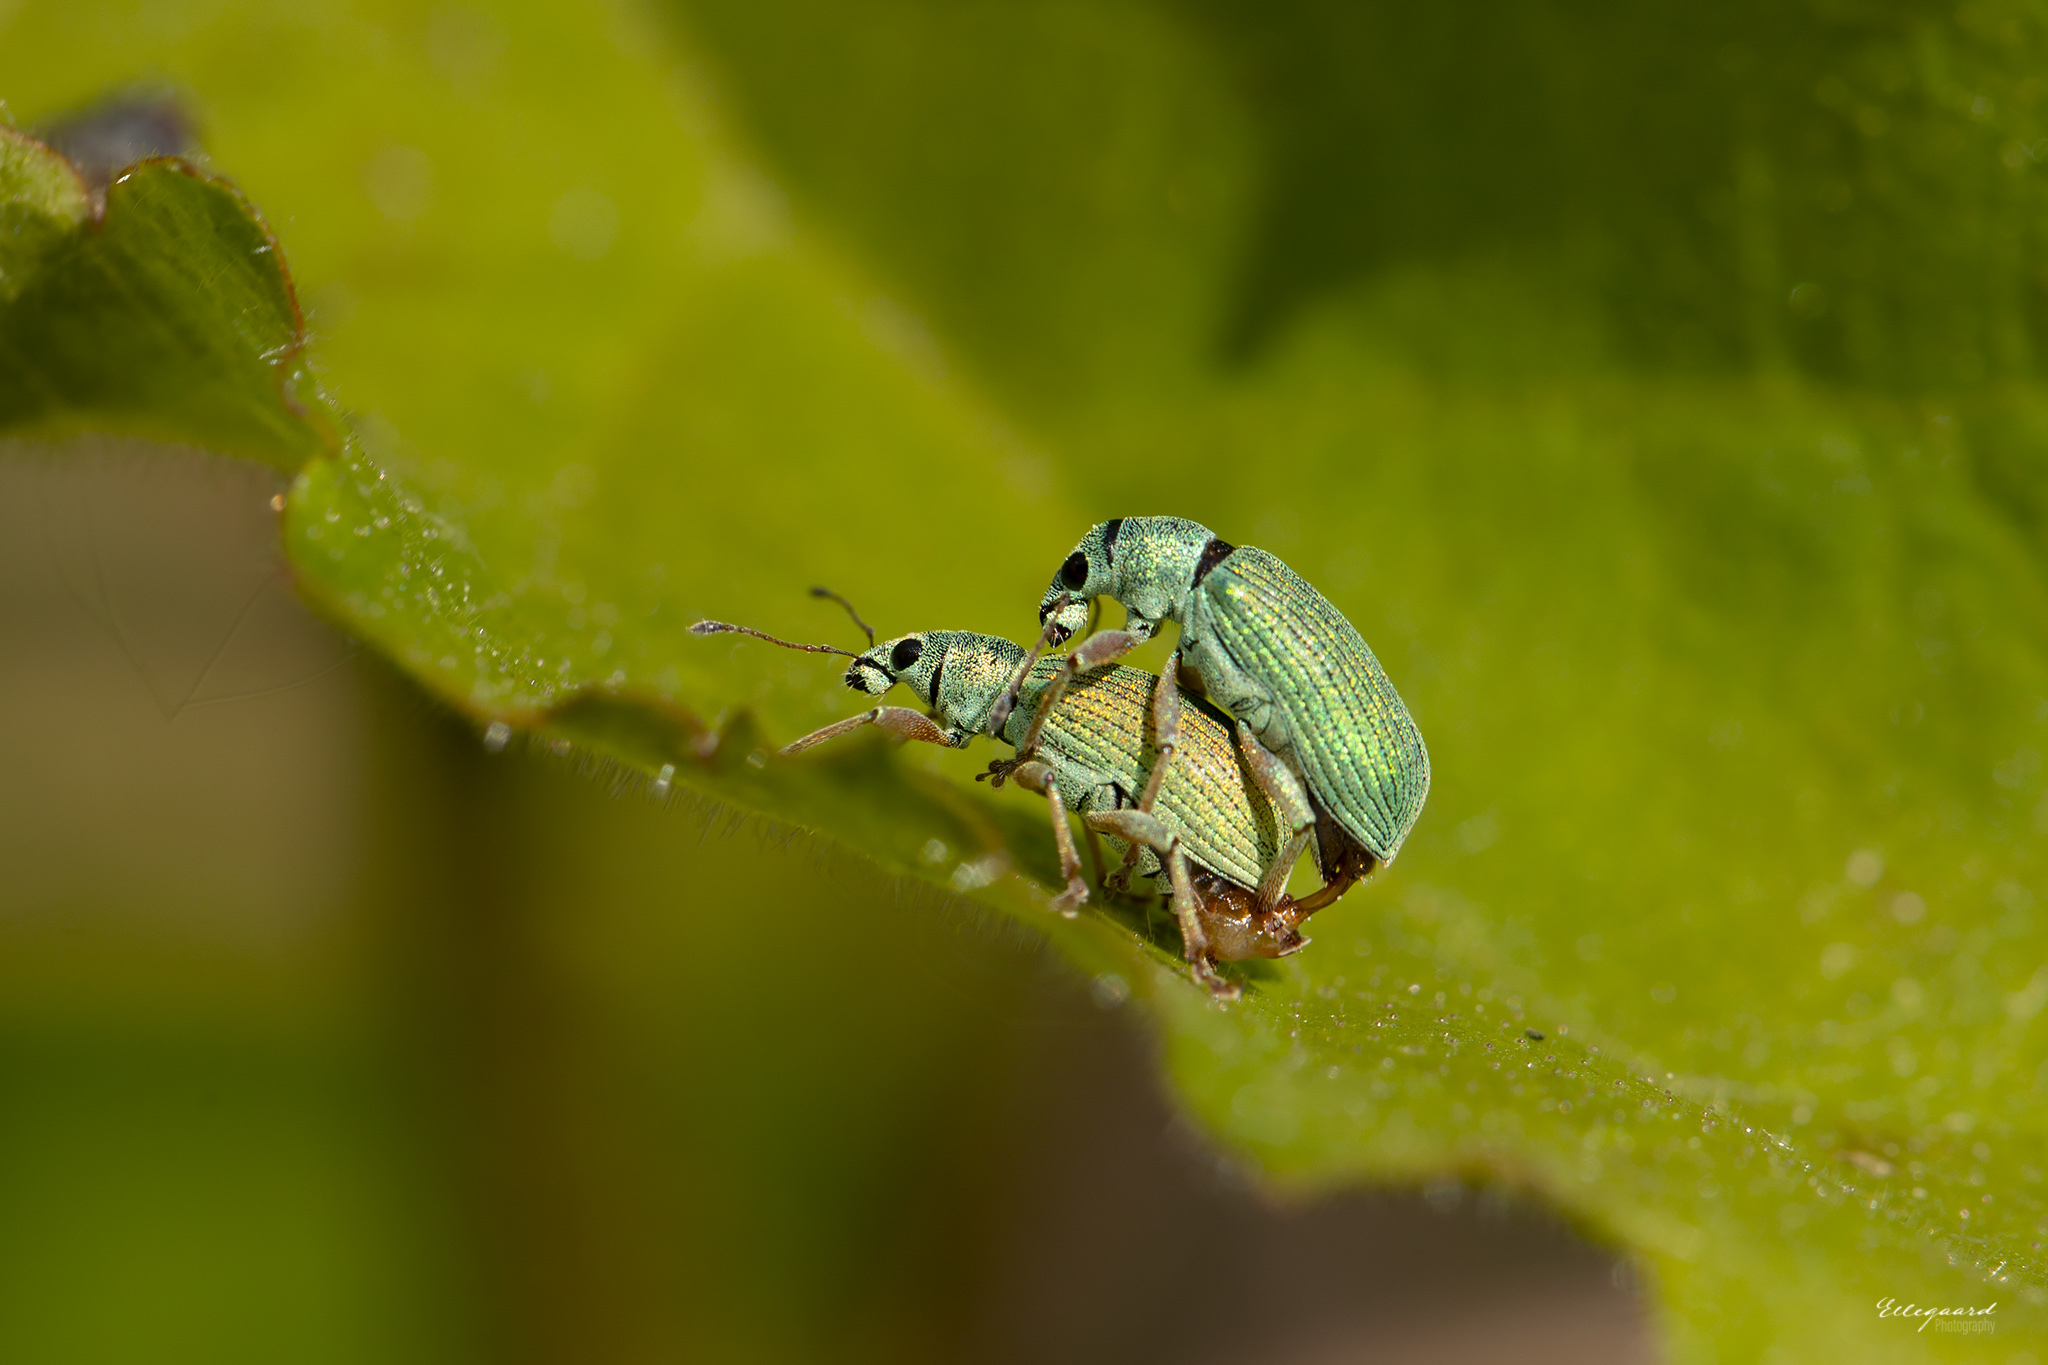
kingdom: Animalia
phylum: Arthropoda
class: Insecta
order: Coleoptera
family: Curculionidae
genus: Polydrusus
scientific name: Polydrusus formosus
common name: Weevil
